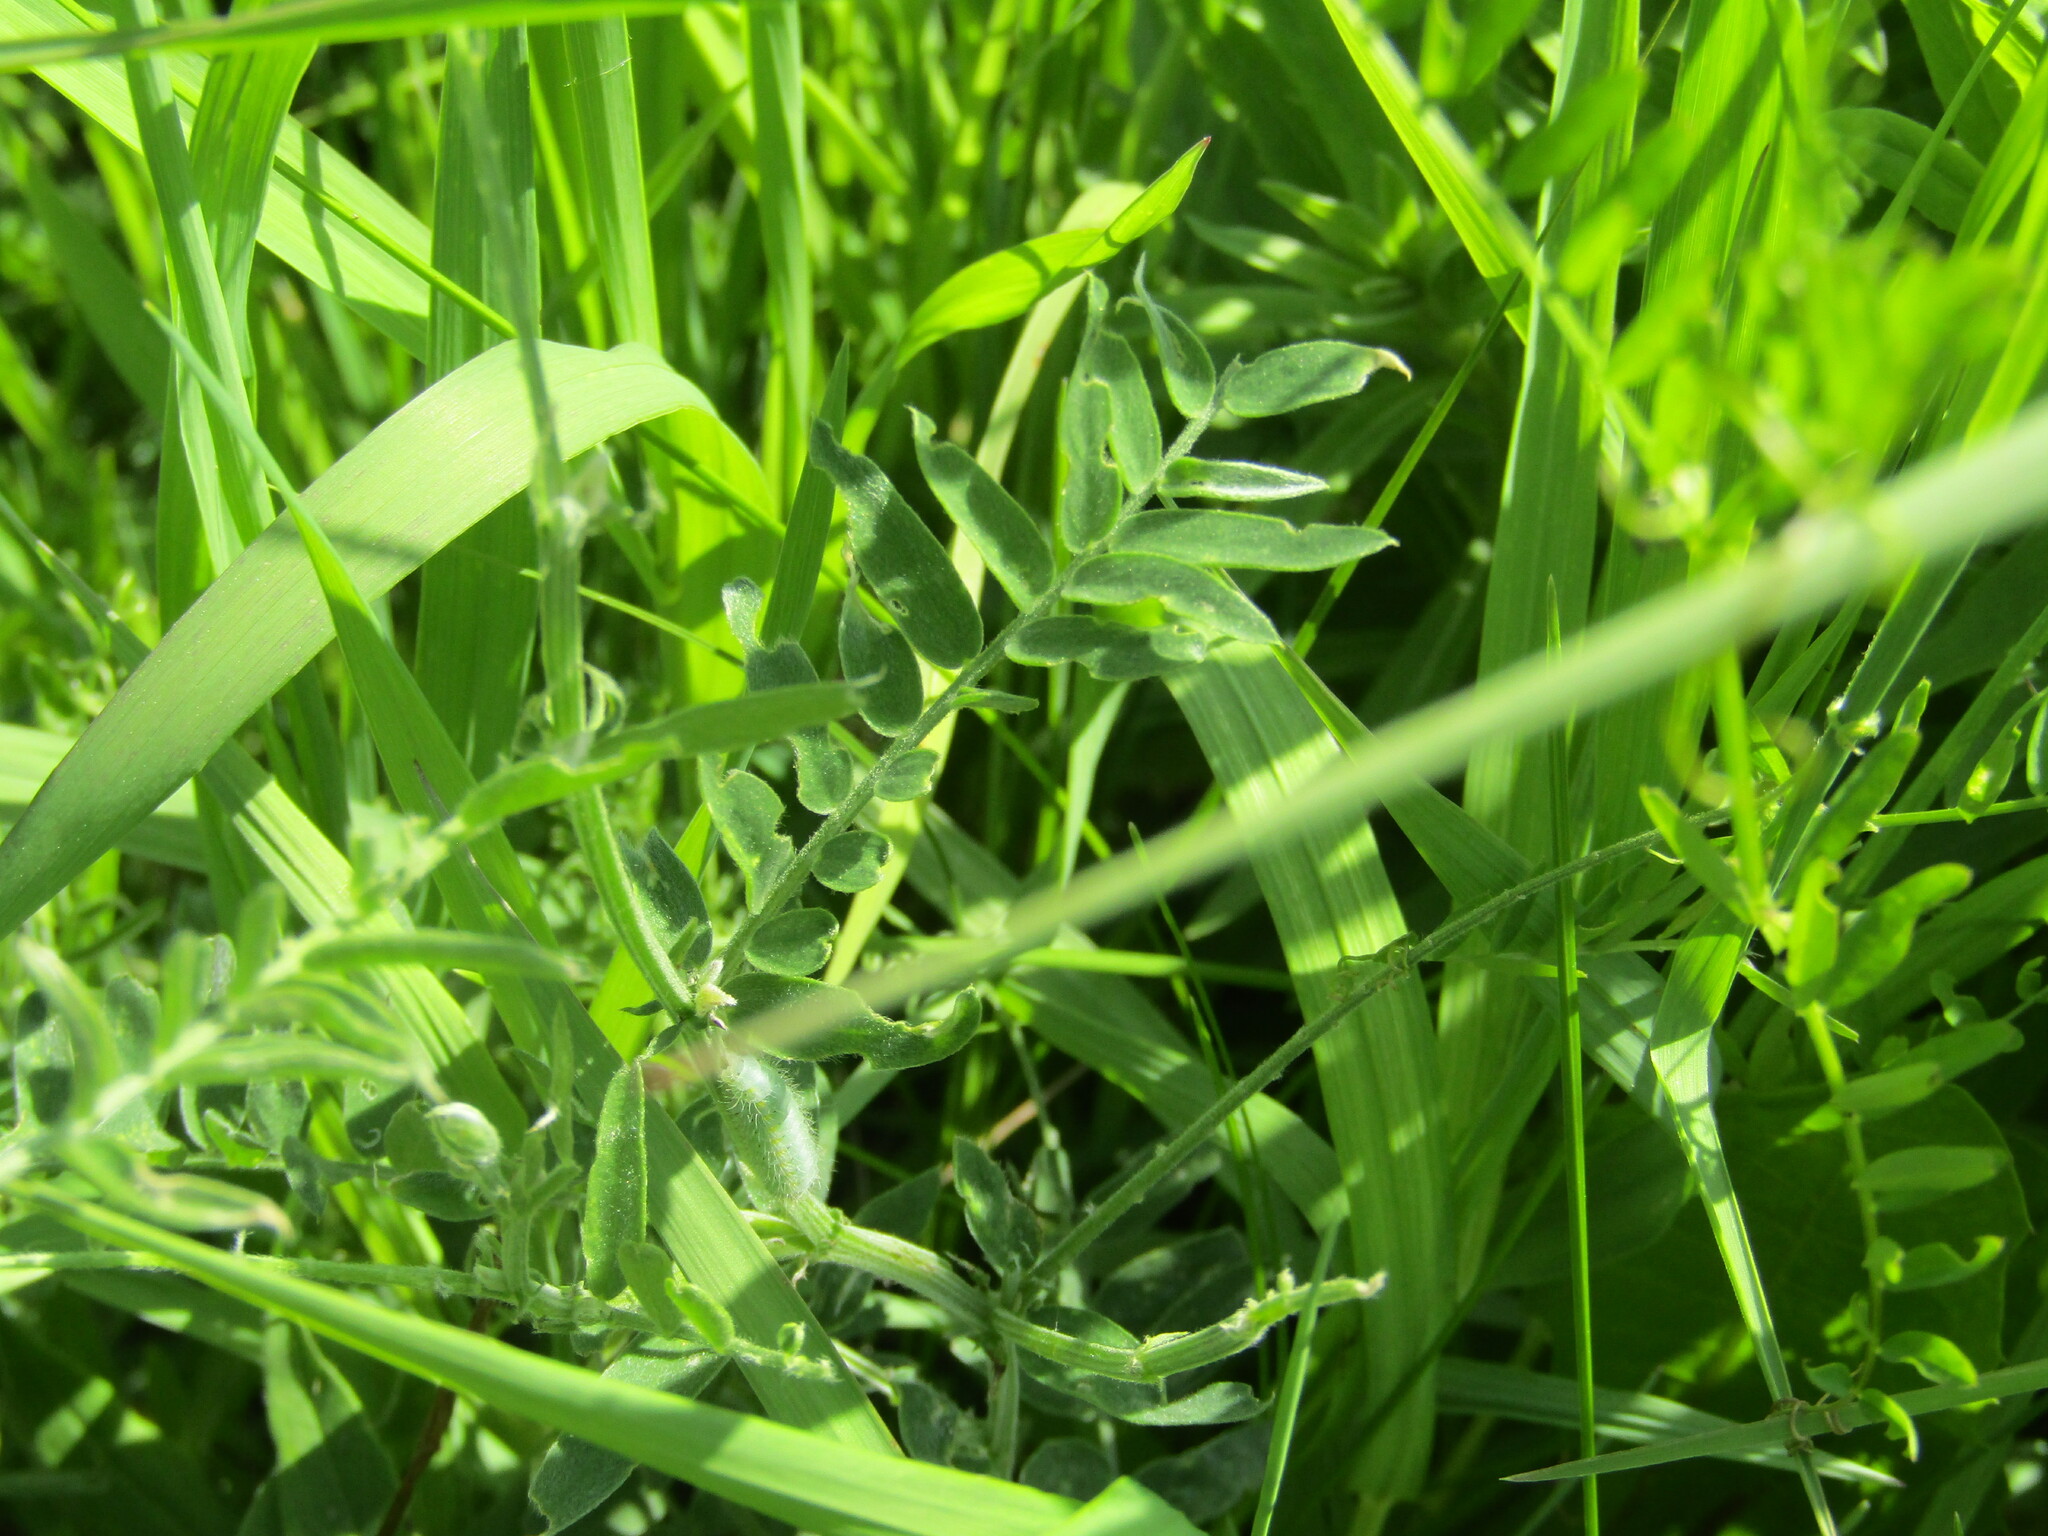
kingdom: Plantae
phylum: Tracheophyta
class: Magnoliopsida
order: Fabales
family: Fabaceae
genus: Vicia
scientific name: Vicia cracca
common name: Bird vetch
